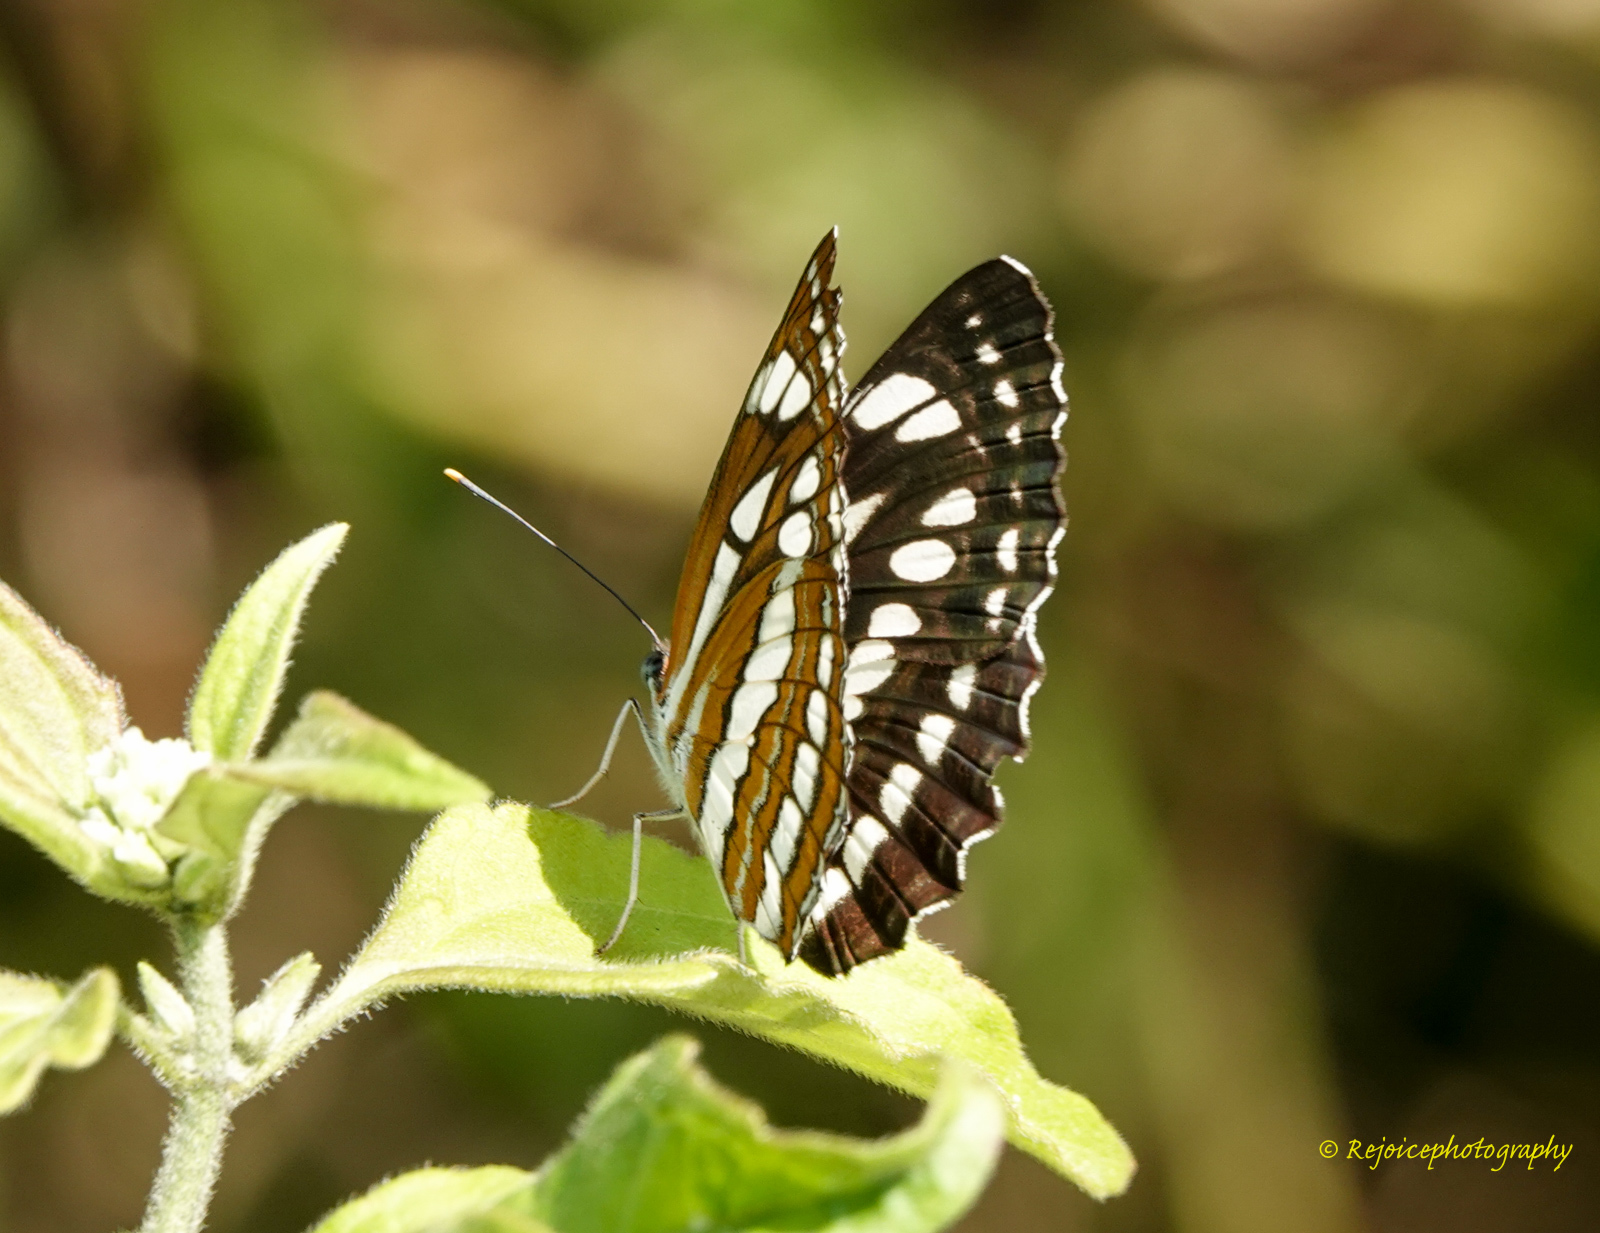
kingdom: Animalia
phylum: Arthropoda
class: Insecta
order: Lepidoptera
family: Nymphalidae
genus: Neptis
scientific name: Neptis hylas
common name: Common sailer
